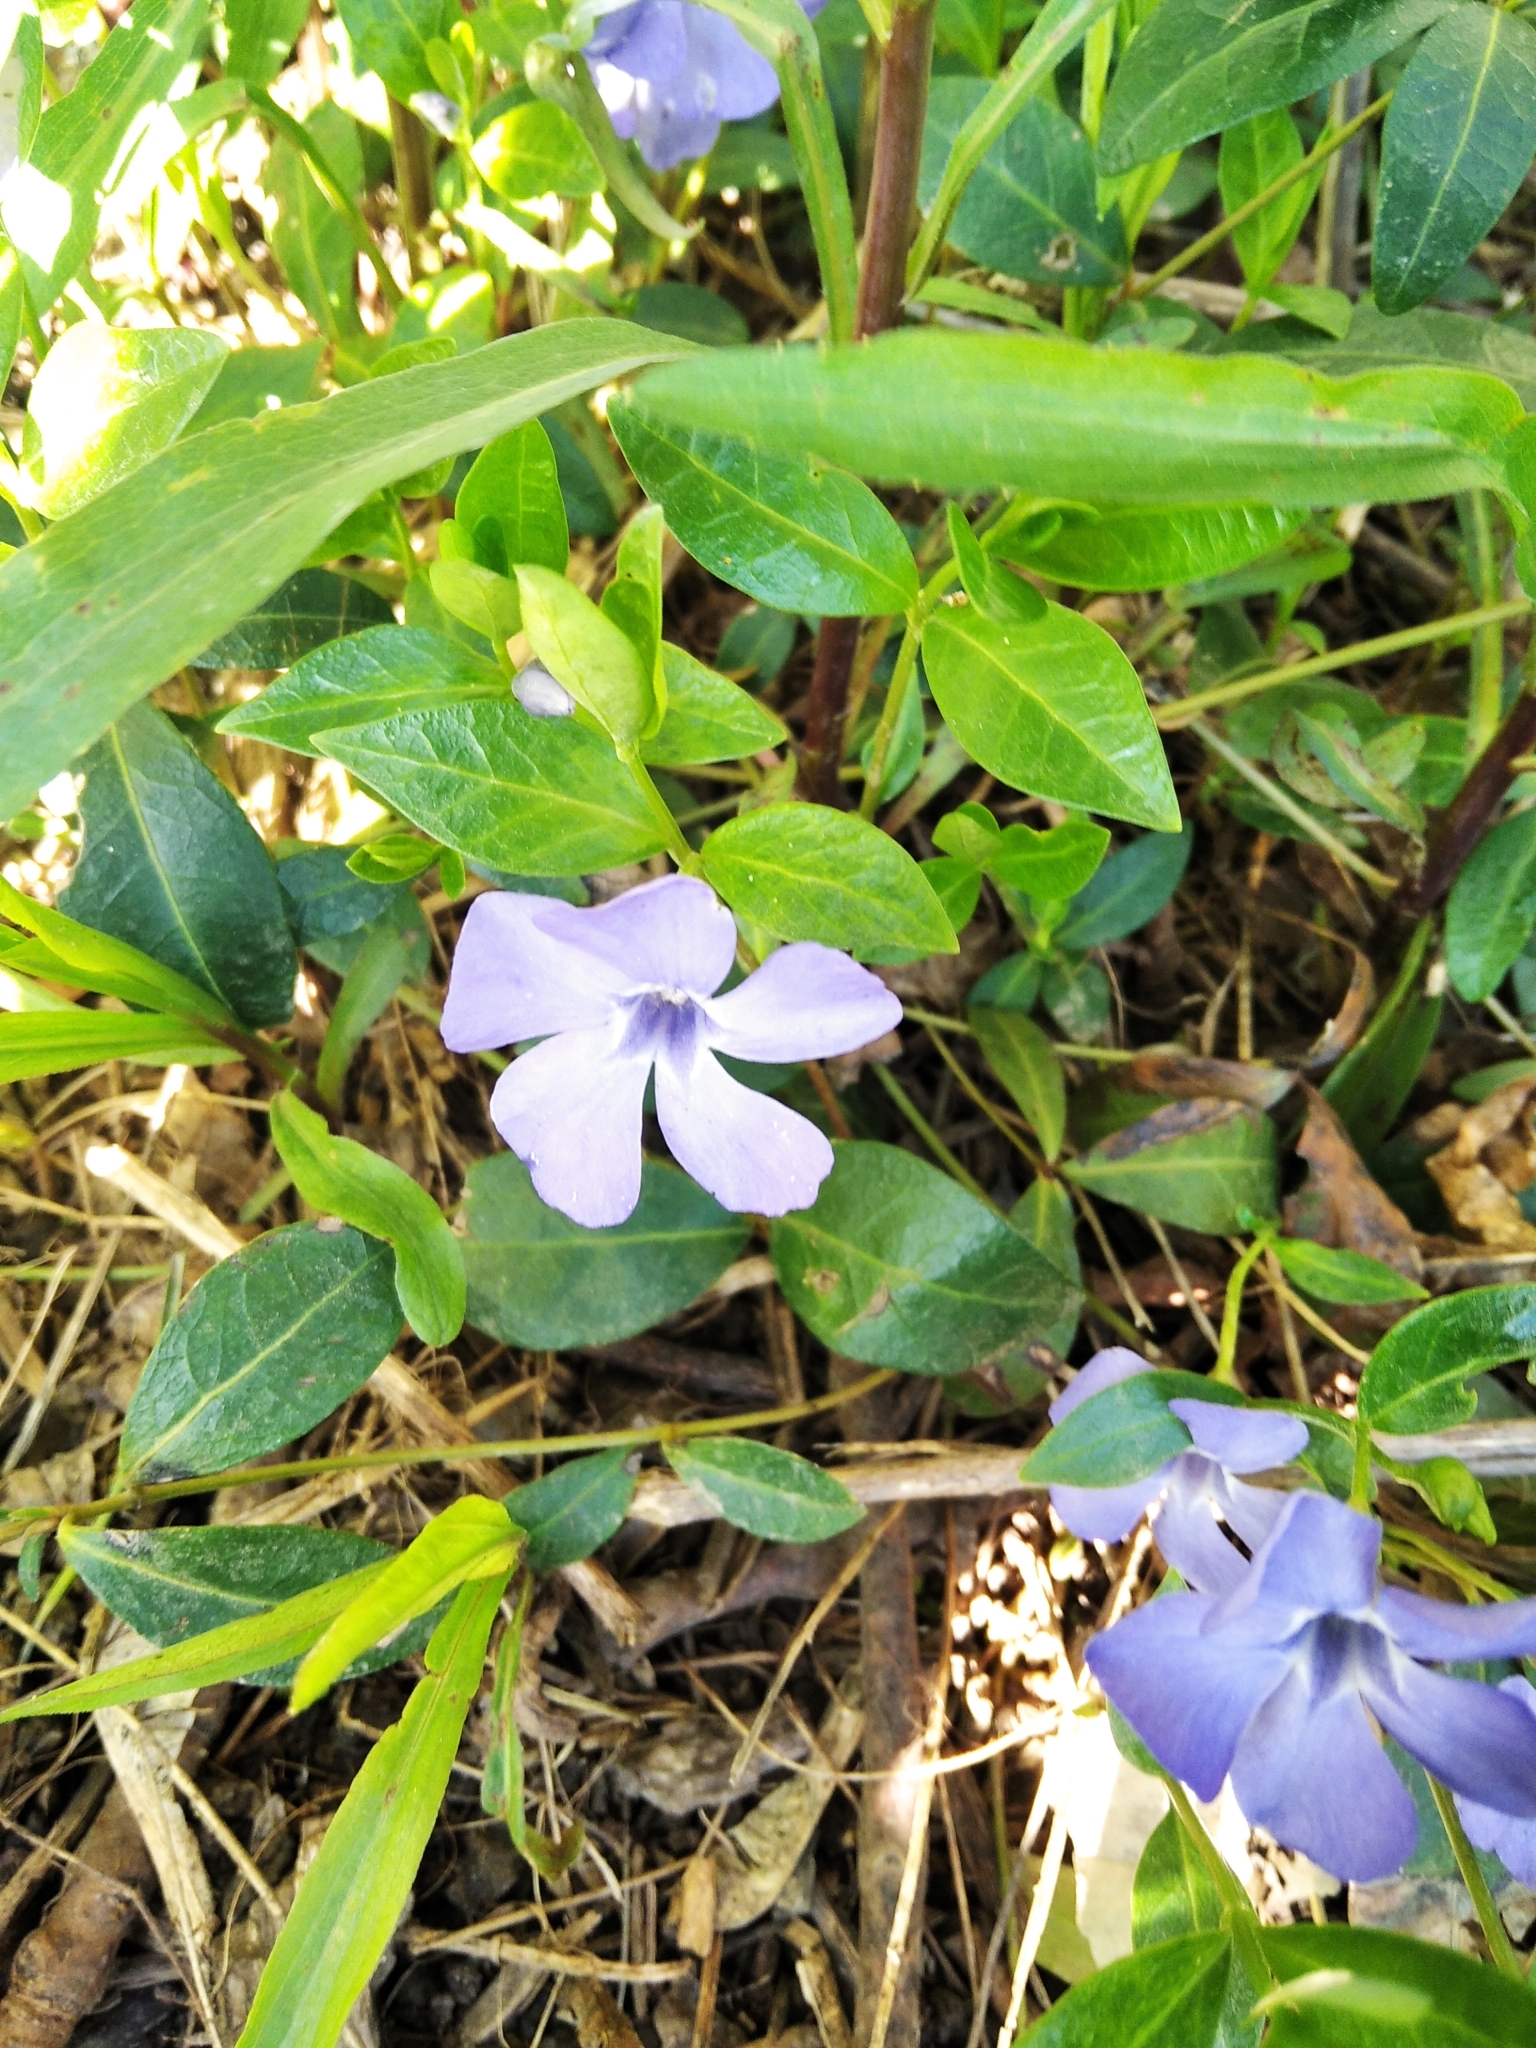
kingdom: Plantae
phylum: Tracheophyta
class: Magnoliopsida
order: Gentianales
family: Apocynaceae
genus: Vinca
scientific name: Vinca minor
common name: Lesser periwinkle
